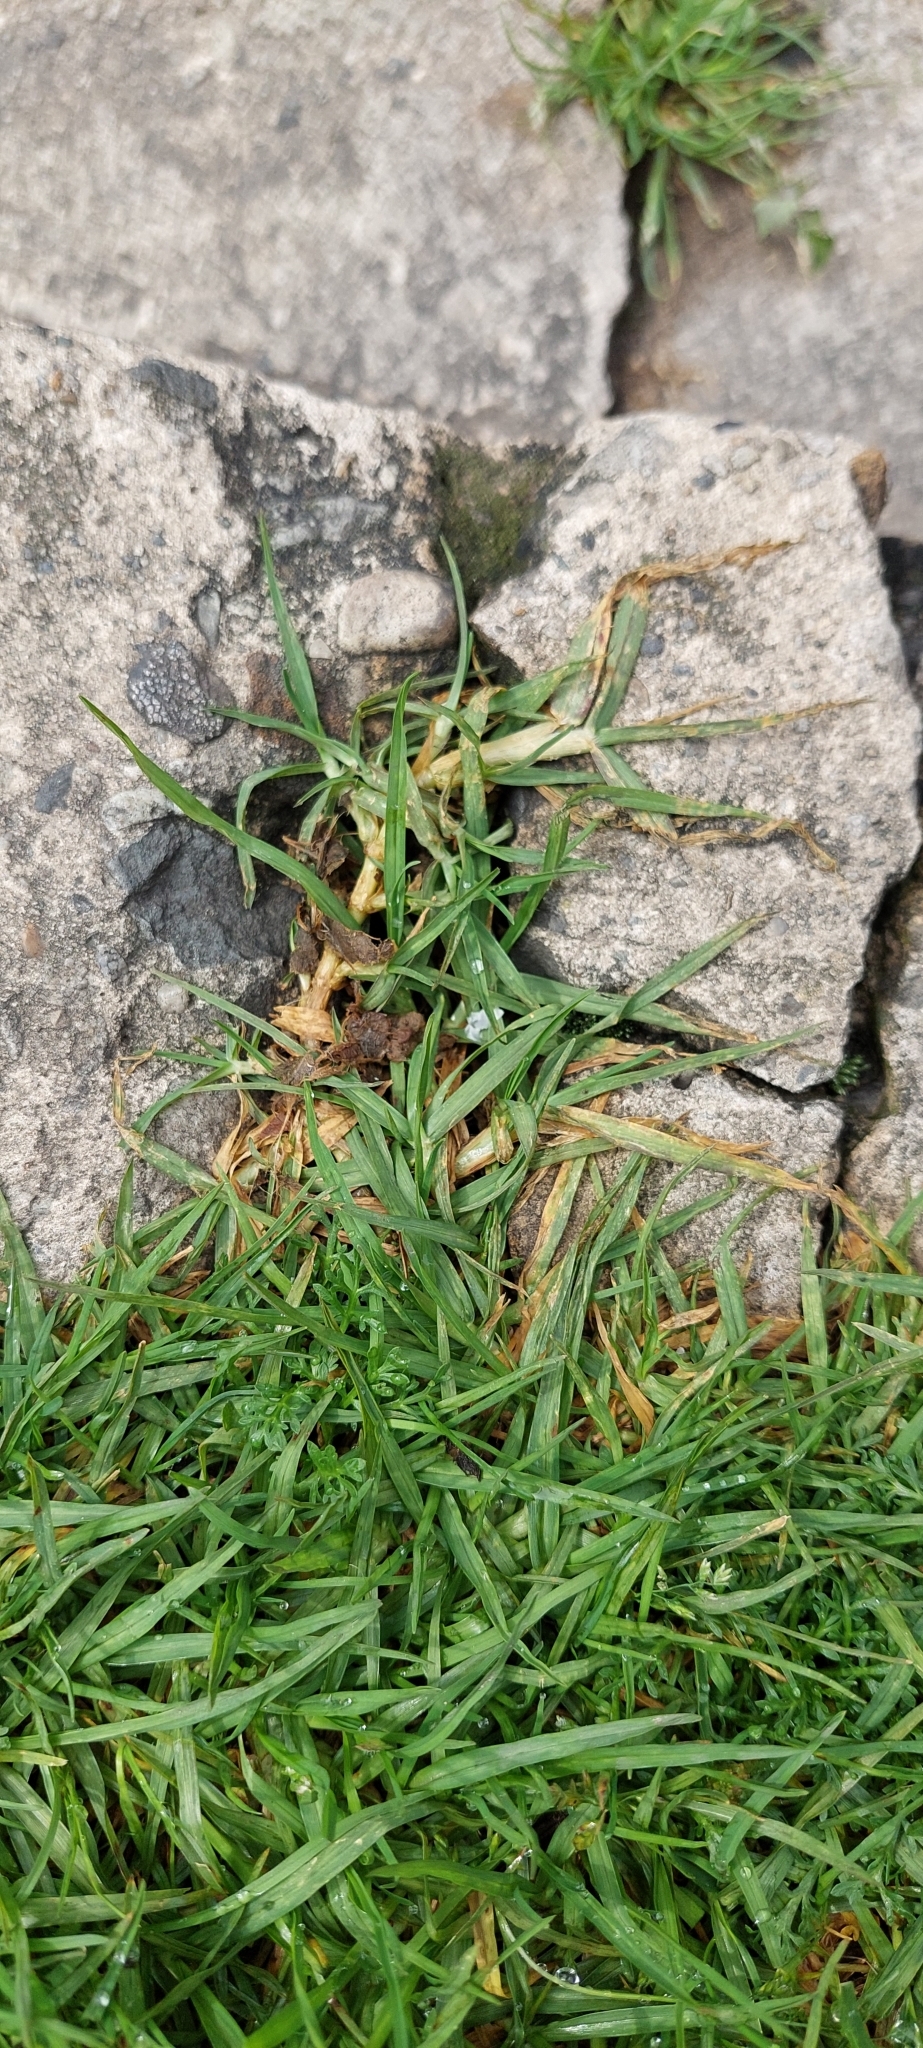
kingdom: Plantae
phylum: Tracheophyta
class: Liliopsida
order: Poales
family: Poaceae
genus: Cenchrus
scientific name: Cenchrus clandestinus
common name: Kikuyugrass
